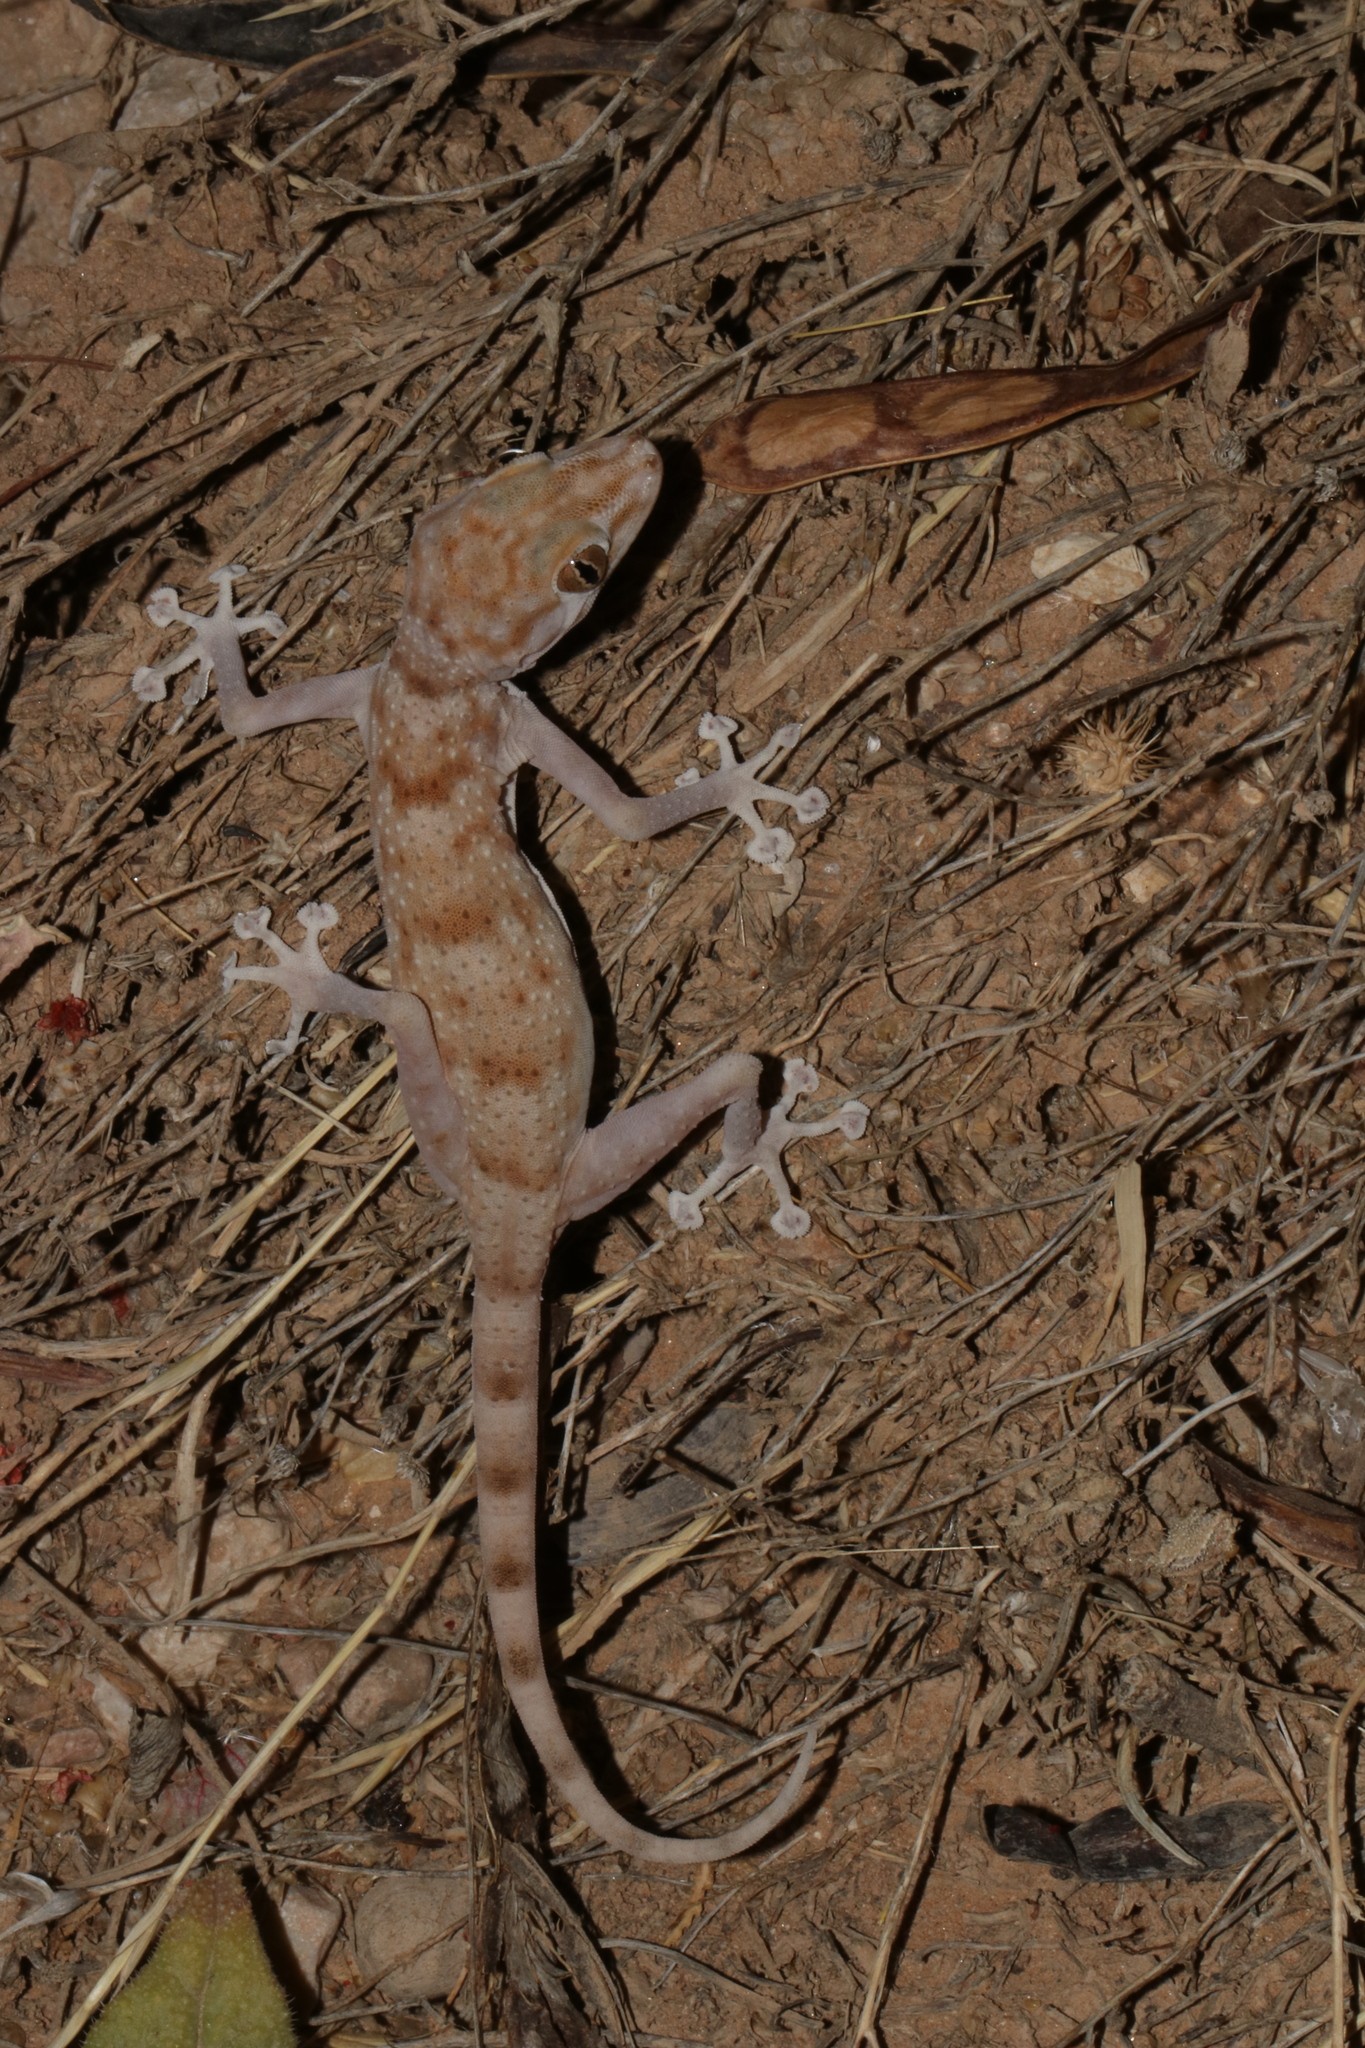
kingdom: Animalia
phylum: Chordata
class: Squamata
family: Phyllodactylidae
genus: Ptyodactylus
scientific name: Ptyodactylus hasselquistii
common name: Hasselquist’s fan-footed gecko
